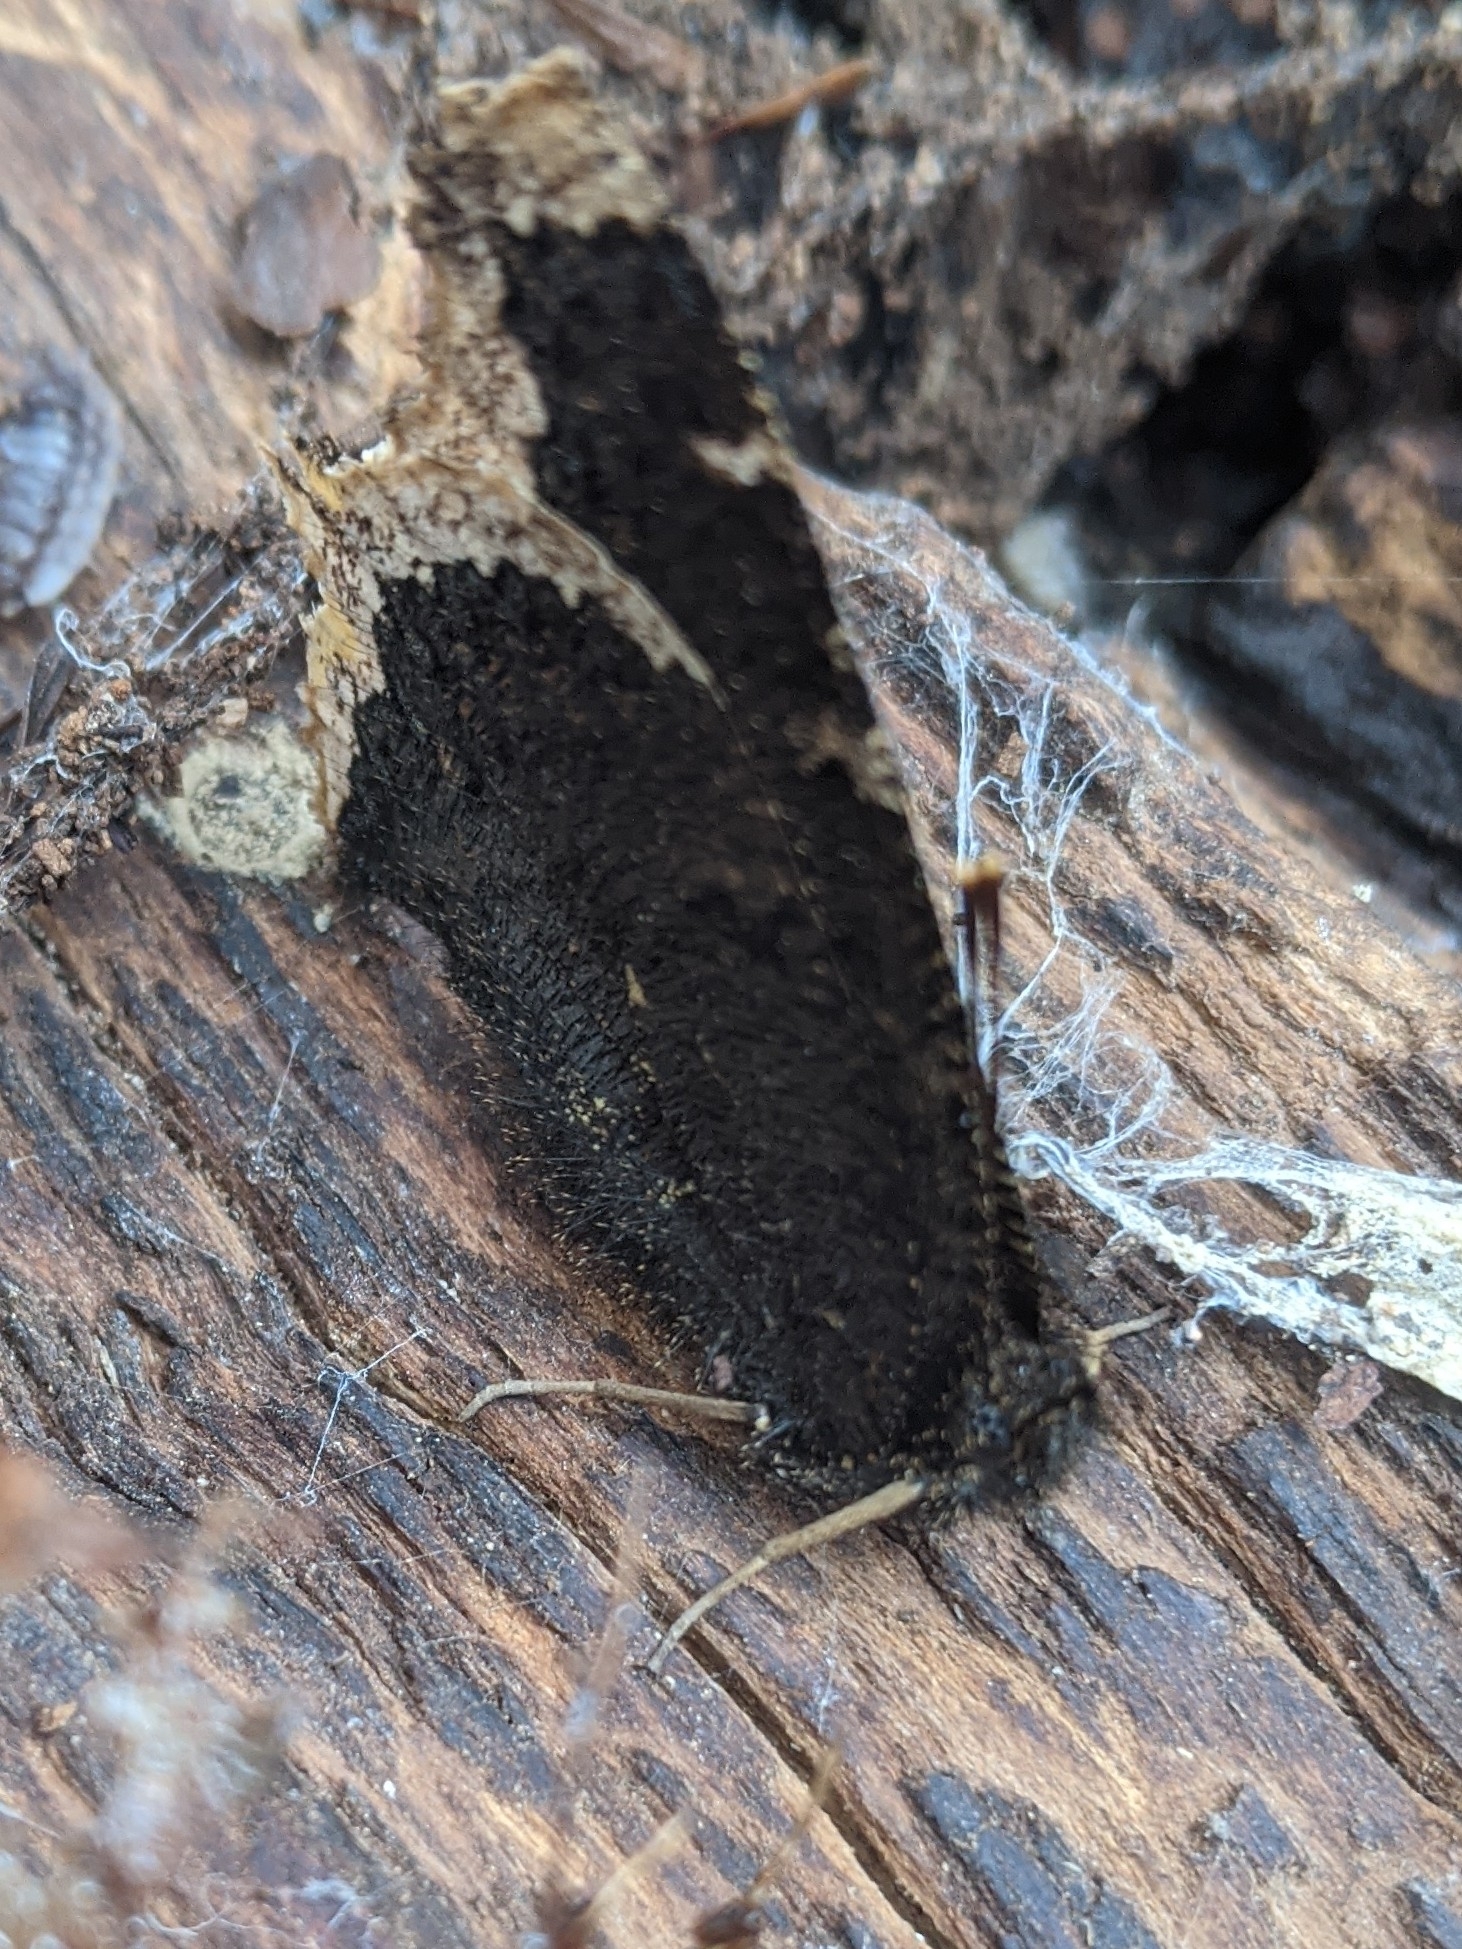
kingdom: Animalia
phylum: Arthropoda
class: Insecta
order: Lepidoptera
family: Nymphalidae
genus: Nymphalis
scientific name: Nymphalis antiopa
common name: Camberwell beauty
